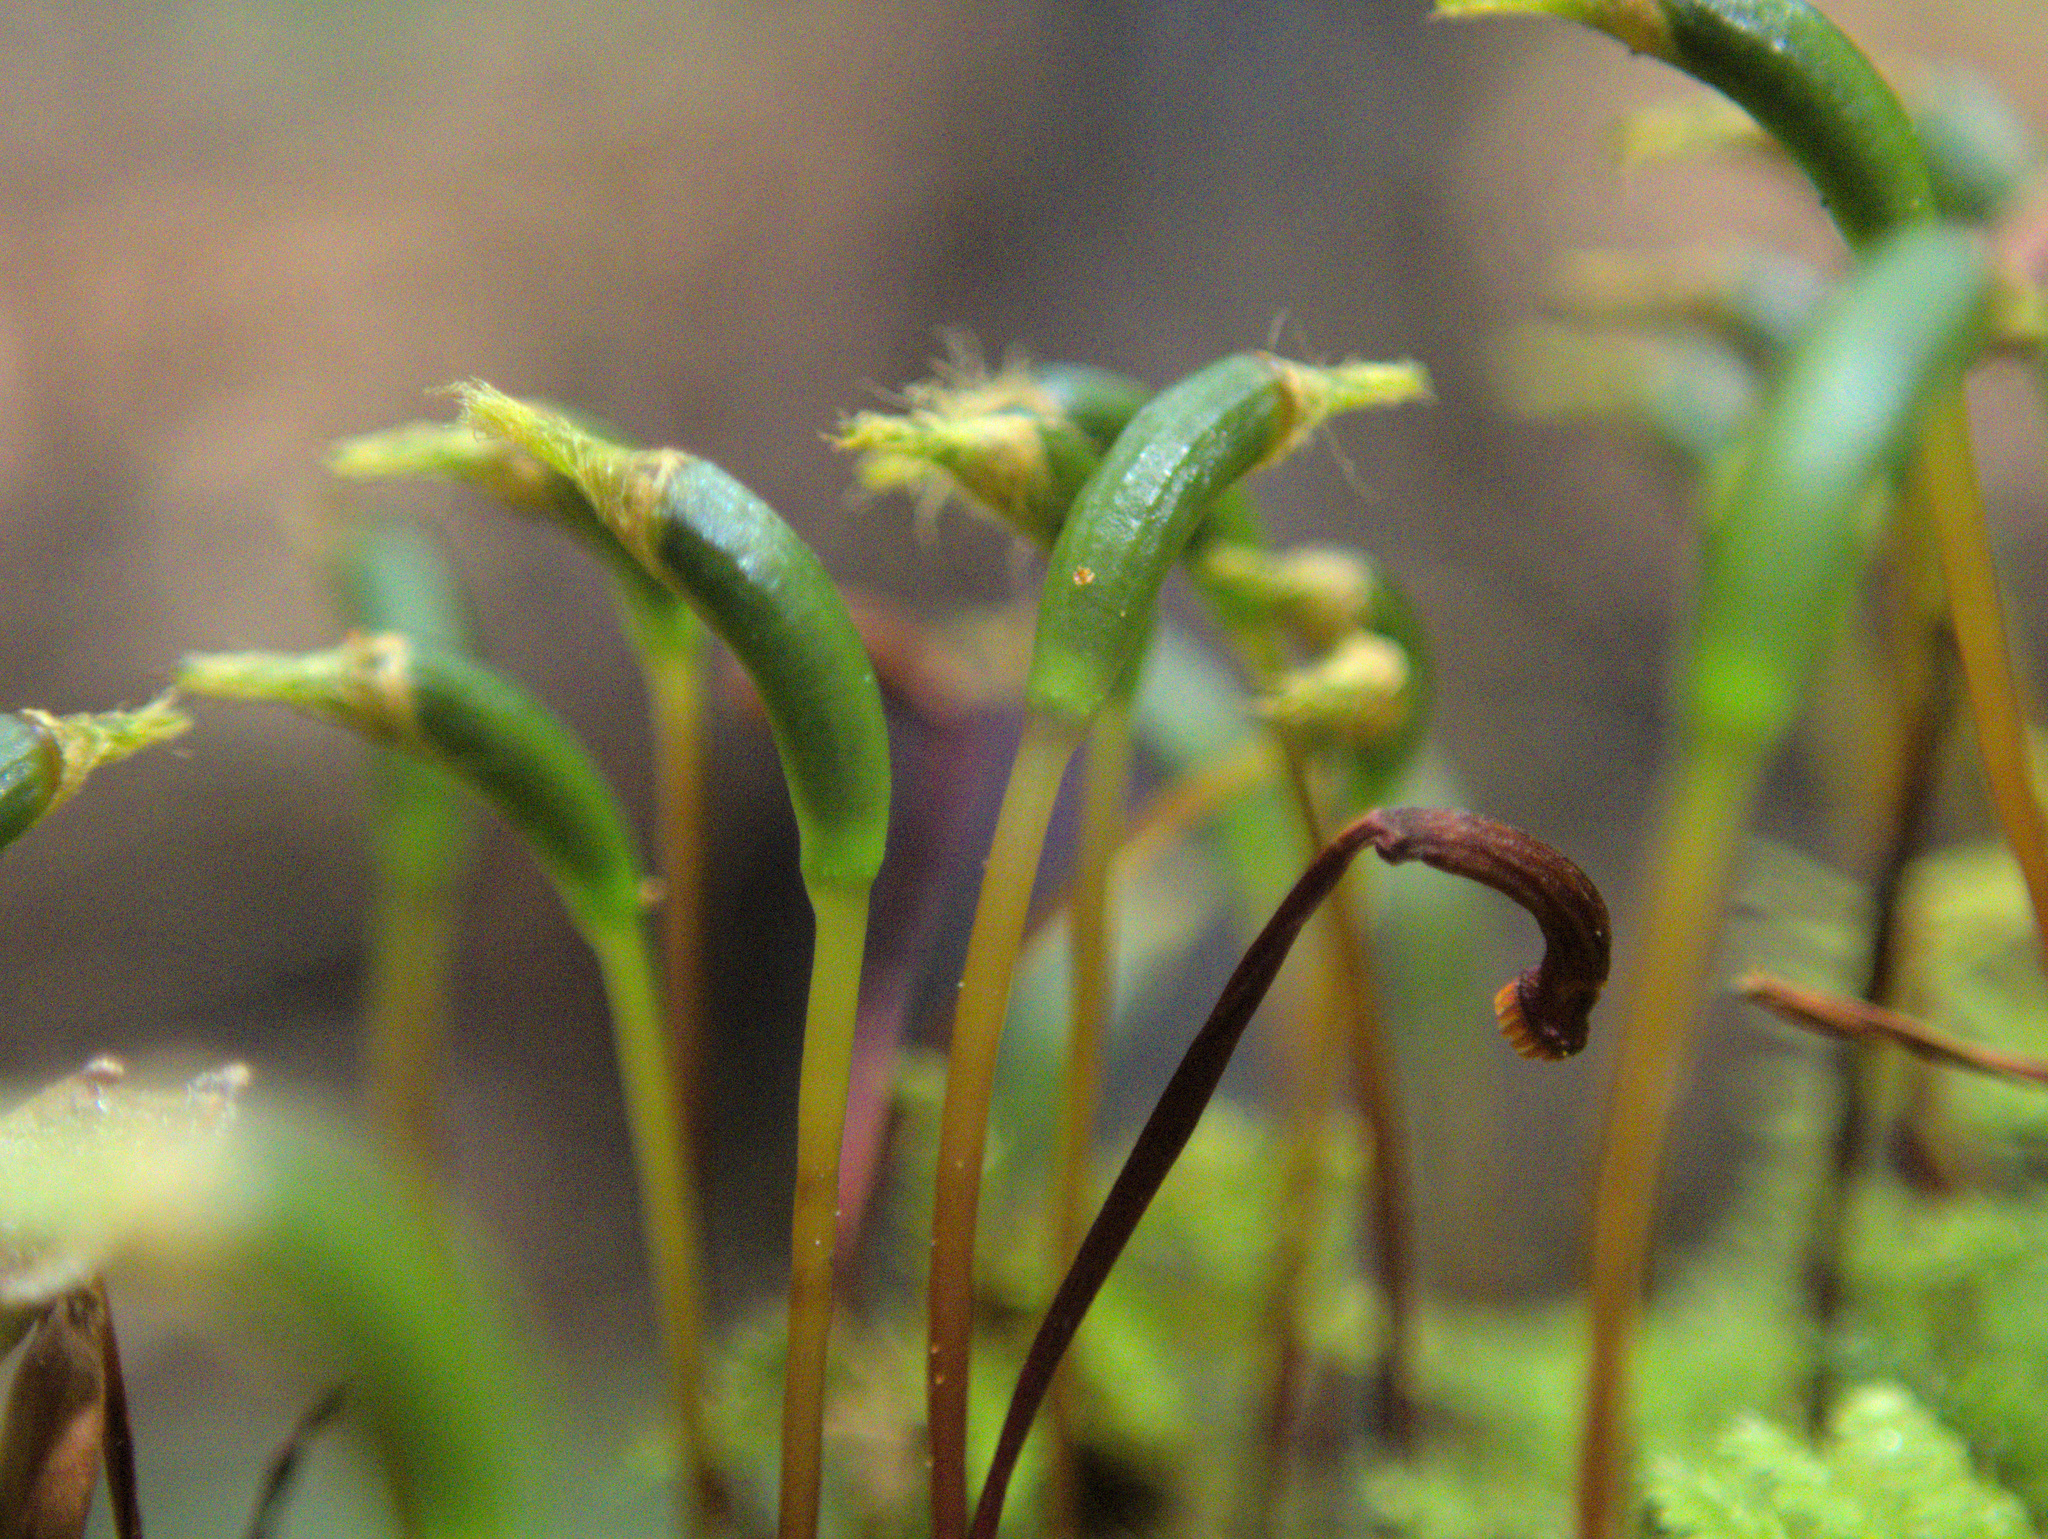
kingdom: Plantae
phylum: Bryophyta
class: Bryopsida
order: Hypnodendrales
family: Racopilaceae
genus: Racopilum
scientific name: Racopilum strumiferum
